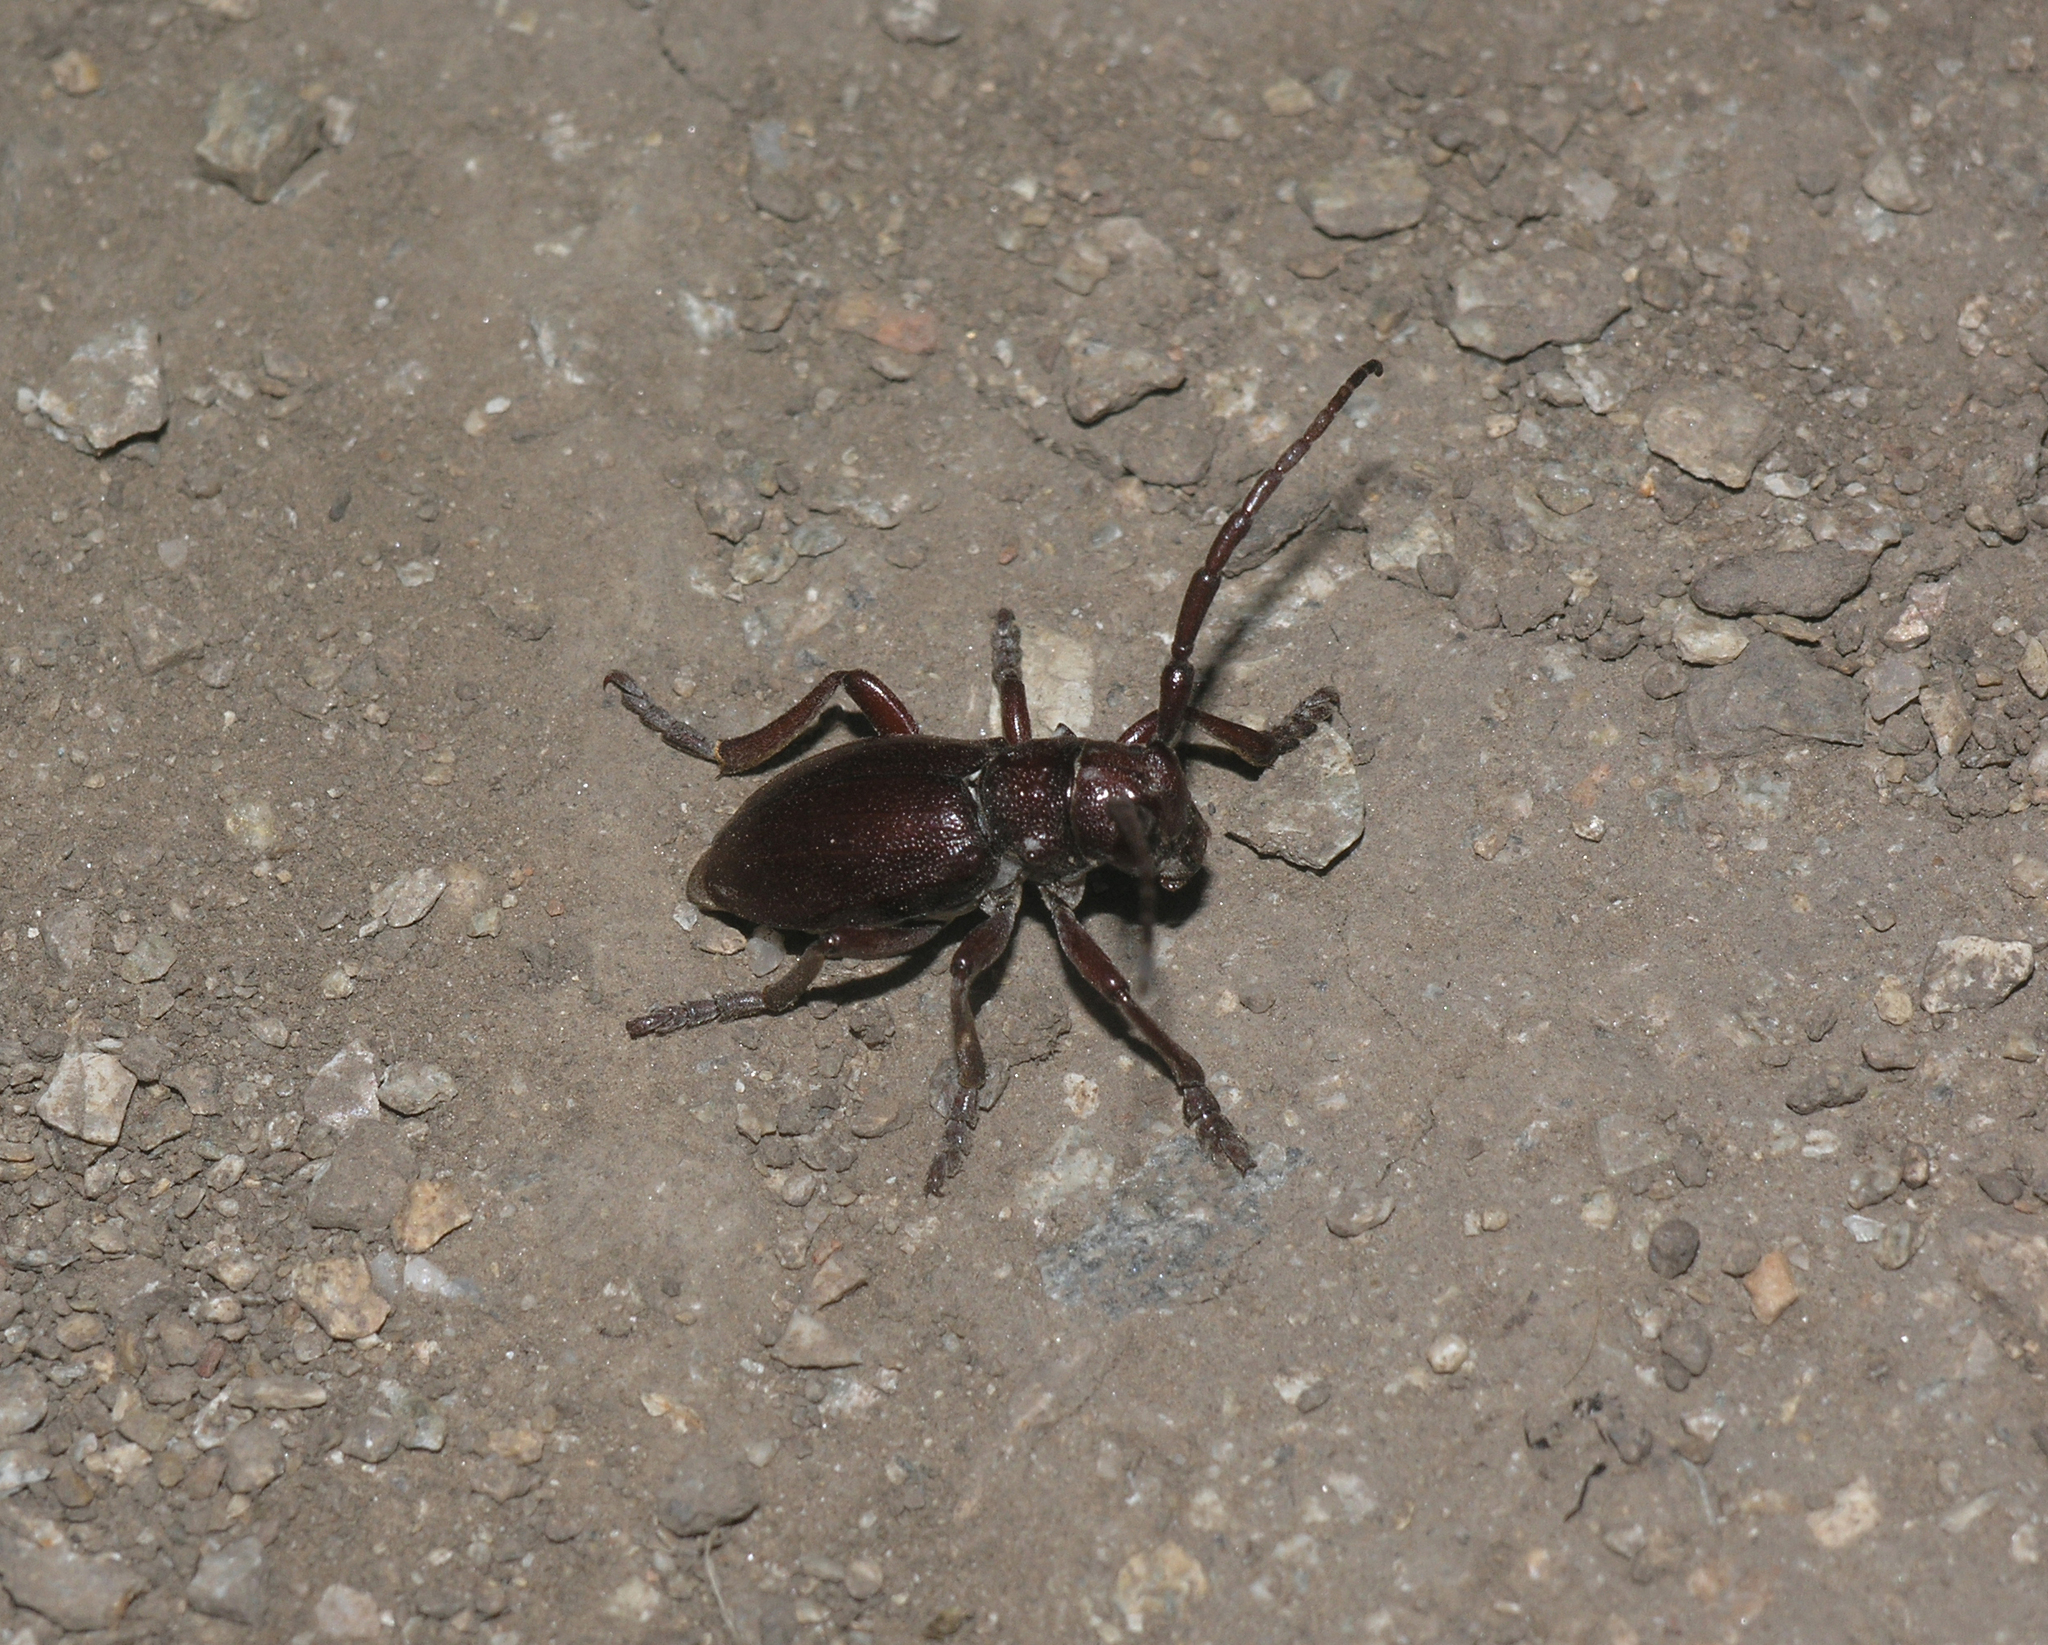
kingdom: Animalia
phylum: Arthropoda
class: Insecta
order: Coleoptera
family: Cerambycidae
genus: Eodorcadion
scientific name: Eodorcadion carinatum
